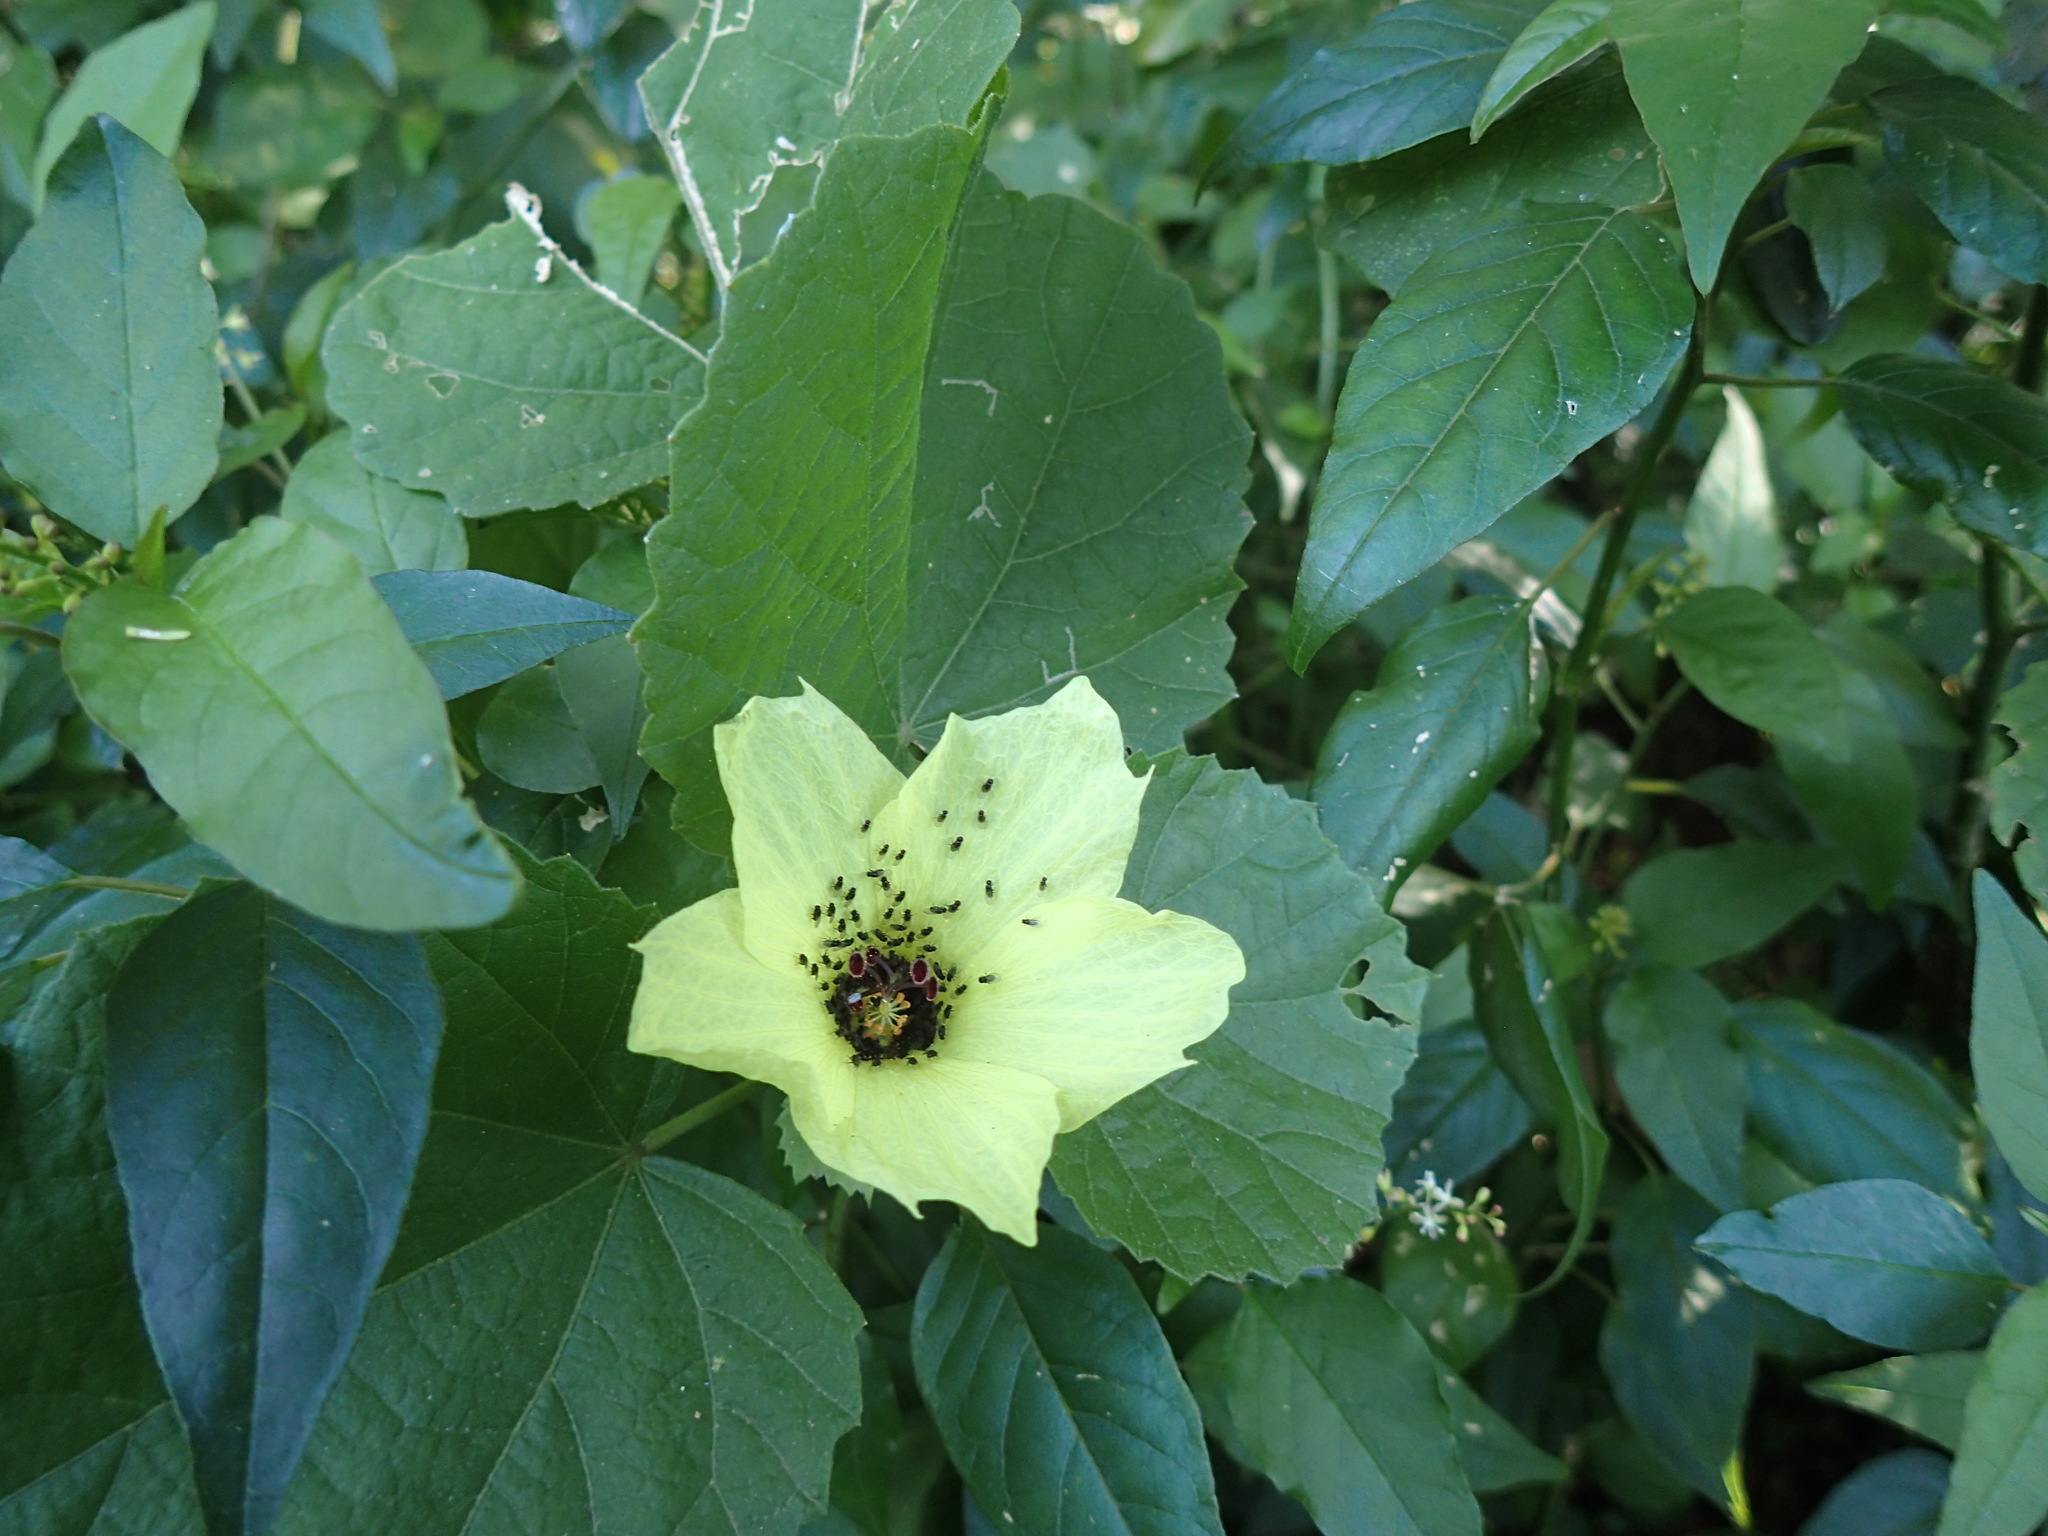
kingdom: Plantae
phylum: Tracheophyta
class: Magnoliopsida
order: Malvales
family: Malvaceae
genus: Hibiscus
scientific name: Hibiscus calyphyllus
